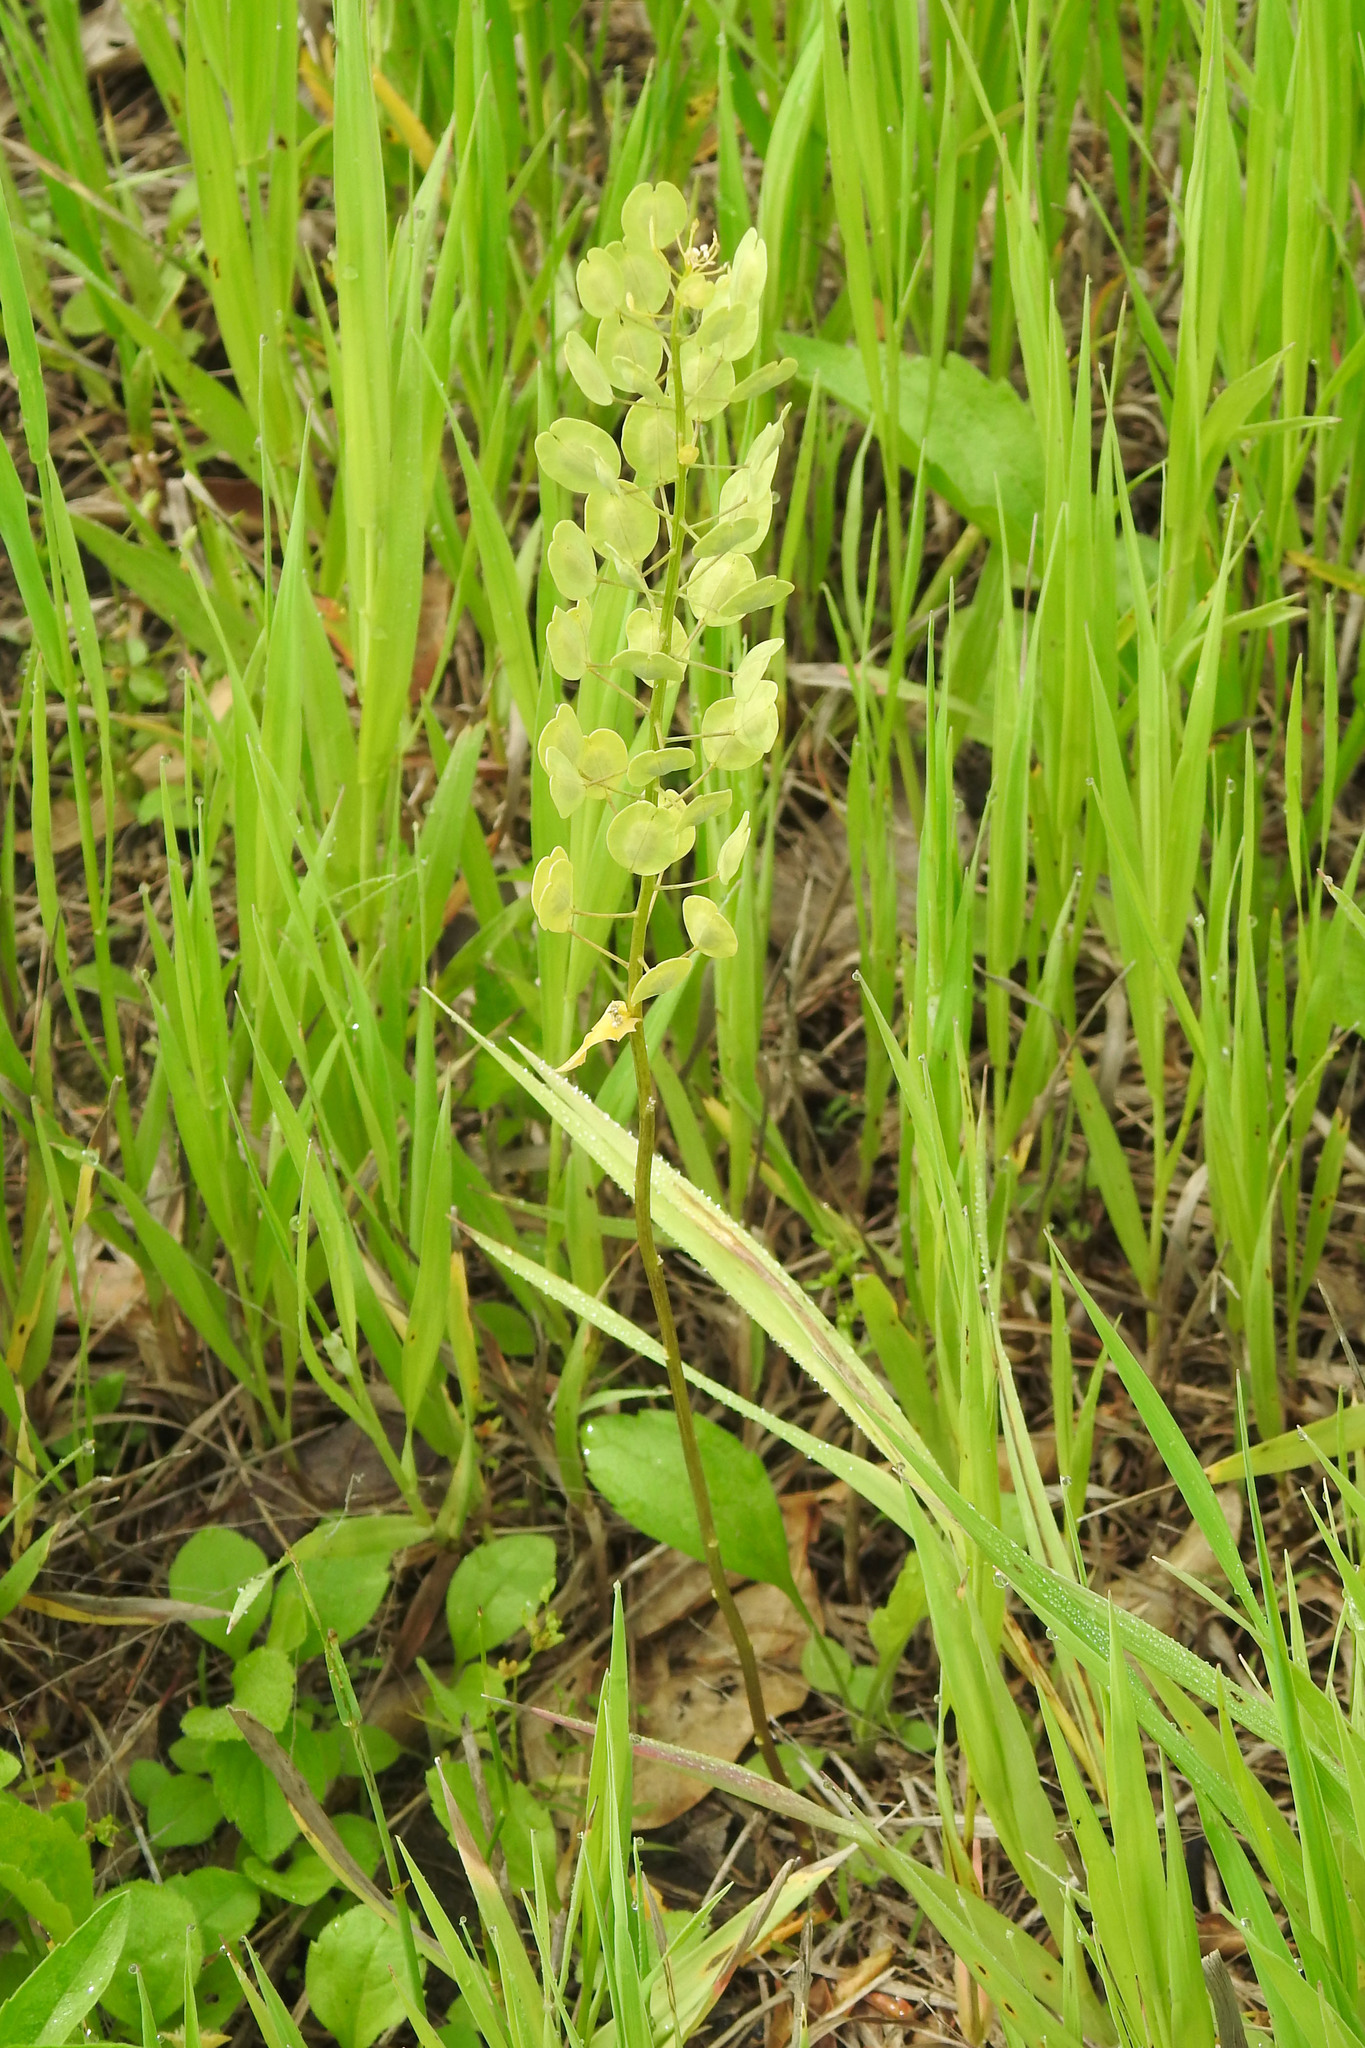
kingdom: Plantae
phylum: Tracheophyta
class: Magnoliopsida
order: Brassicales
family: Brassicaceae
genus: Thlaspi
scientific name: Thlaspi arvense
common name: Field pennycress
